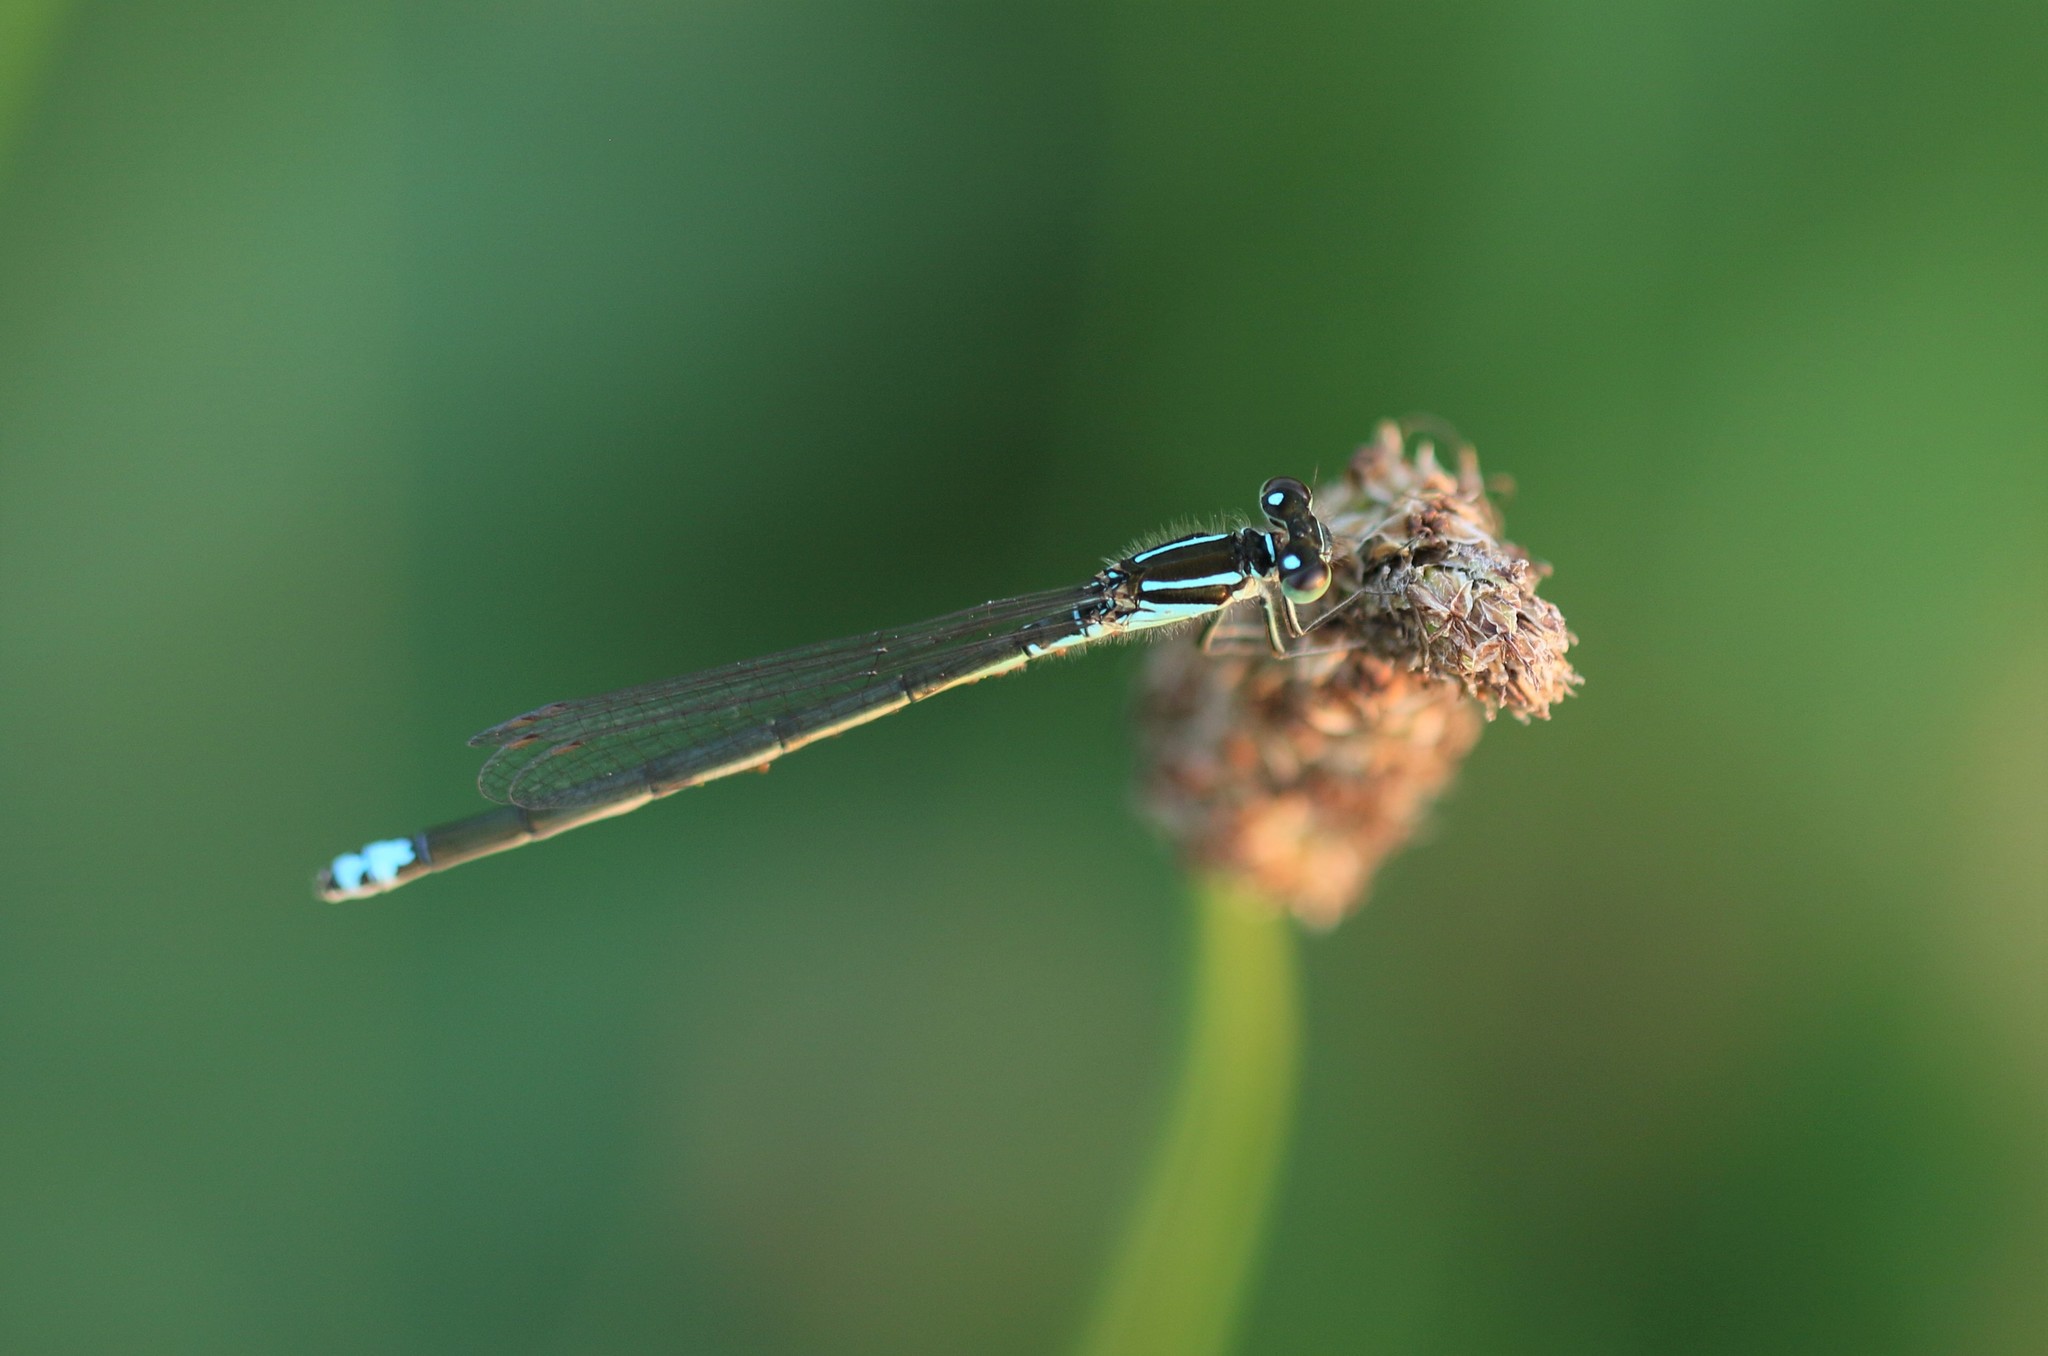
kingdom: Animalia
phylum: Arthropoda
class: Insecta
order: Odonata
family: Coenagrionidae
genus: Ischnura
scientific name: Ischnura verticalis
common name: Eastern forktail
